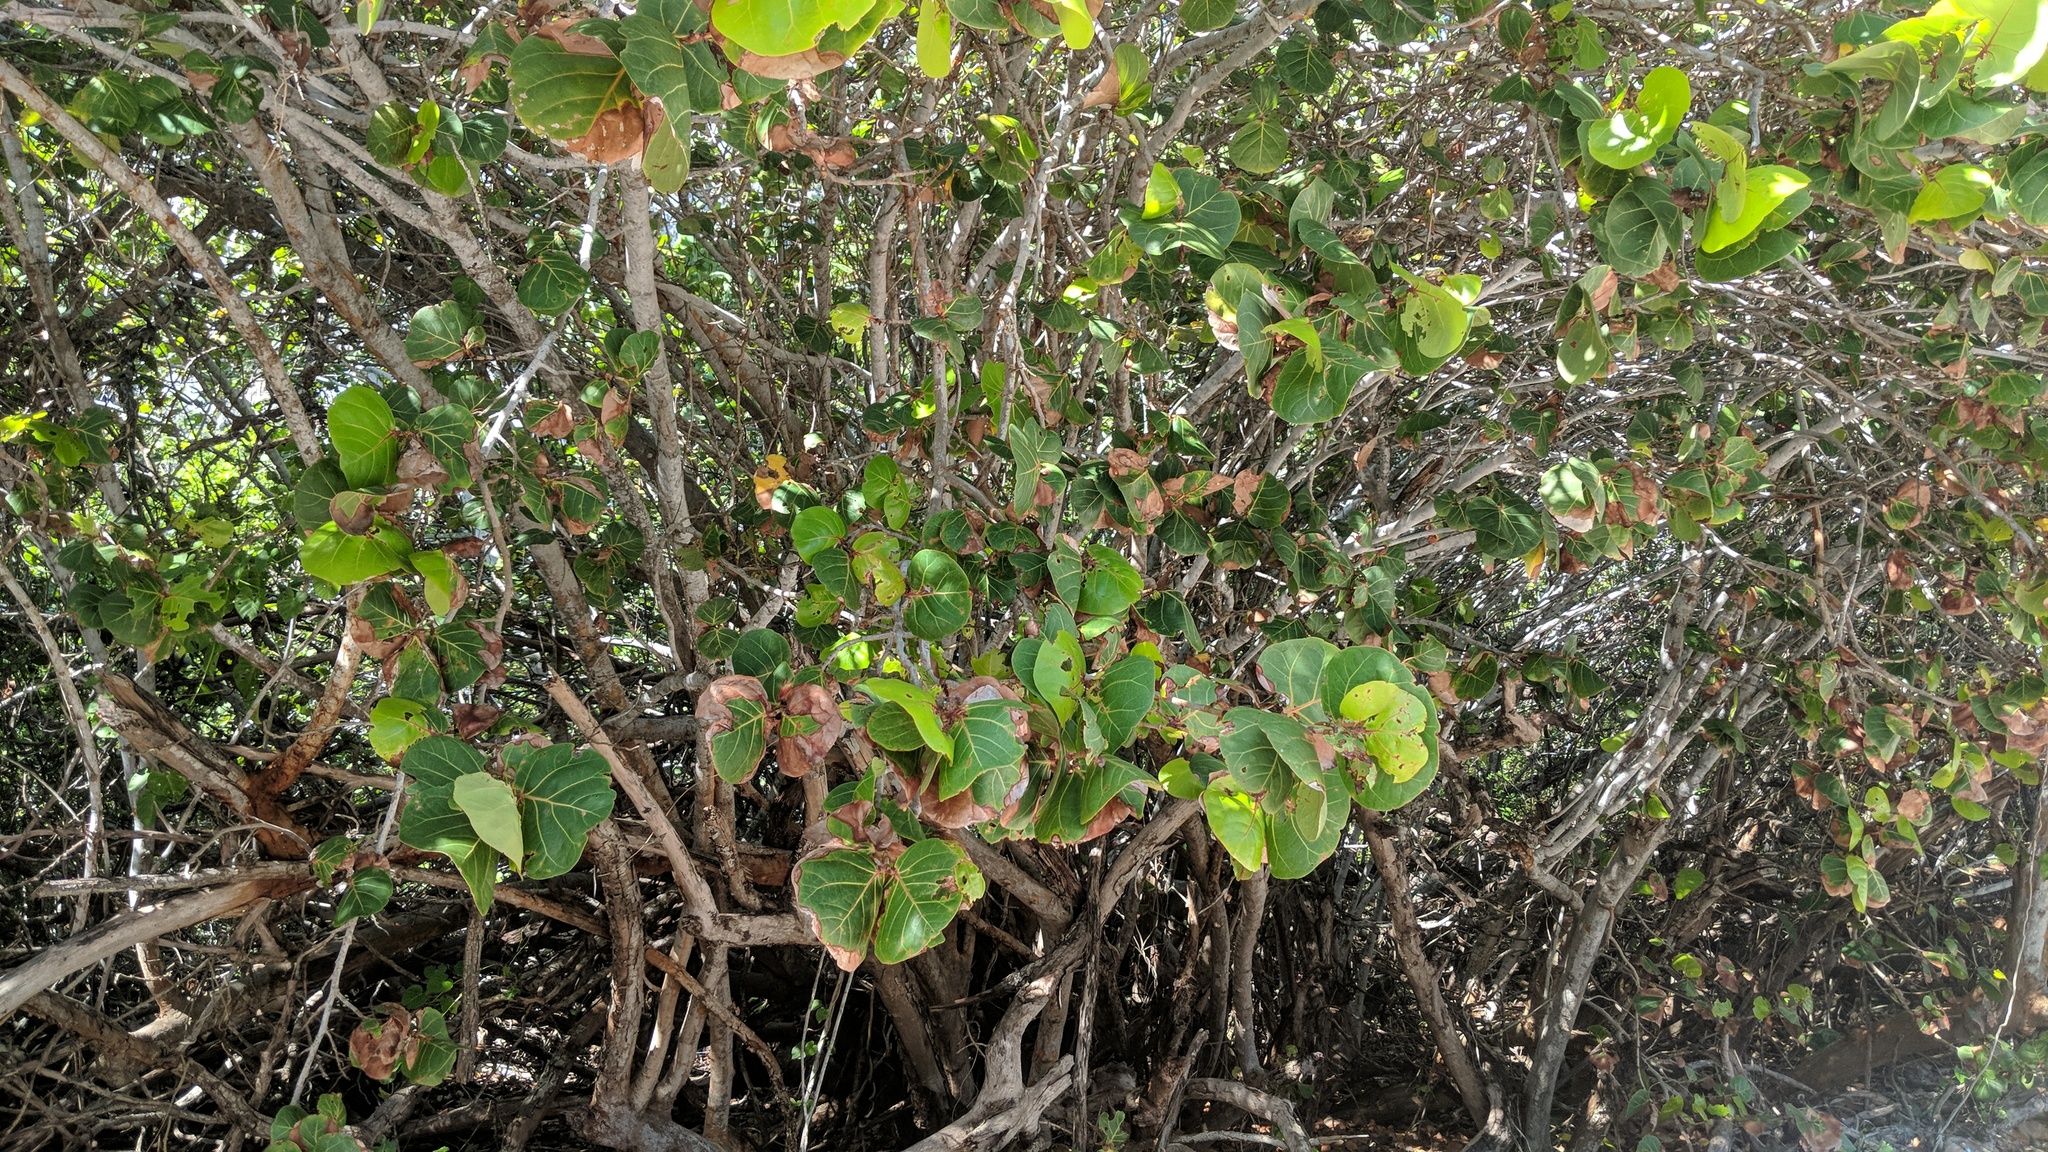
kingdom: Plantae
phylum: Tracheophyta
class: Magnoliopsida
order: Caryophyllales
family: Polygonaceae
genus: Coccoloba
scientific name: Coccoloba uvifera
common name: Seagrape
